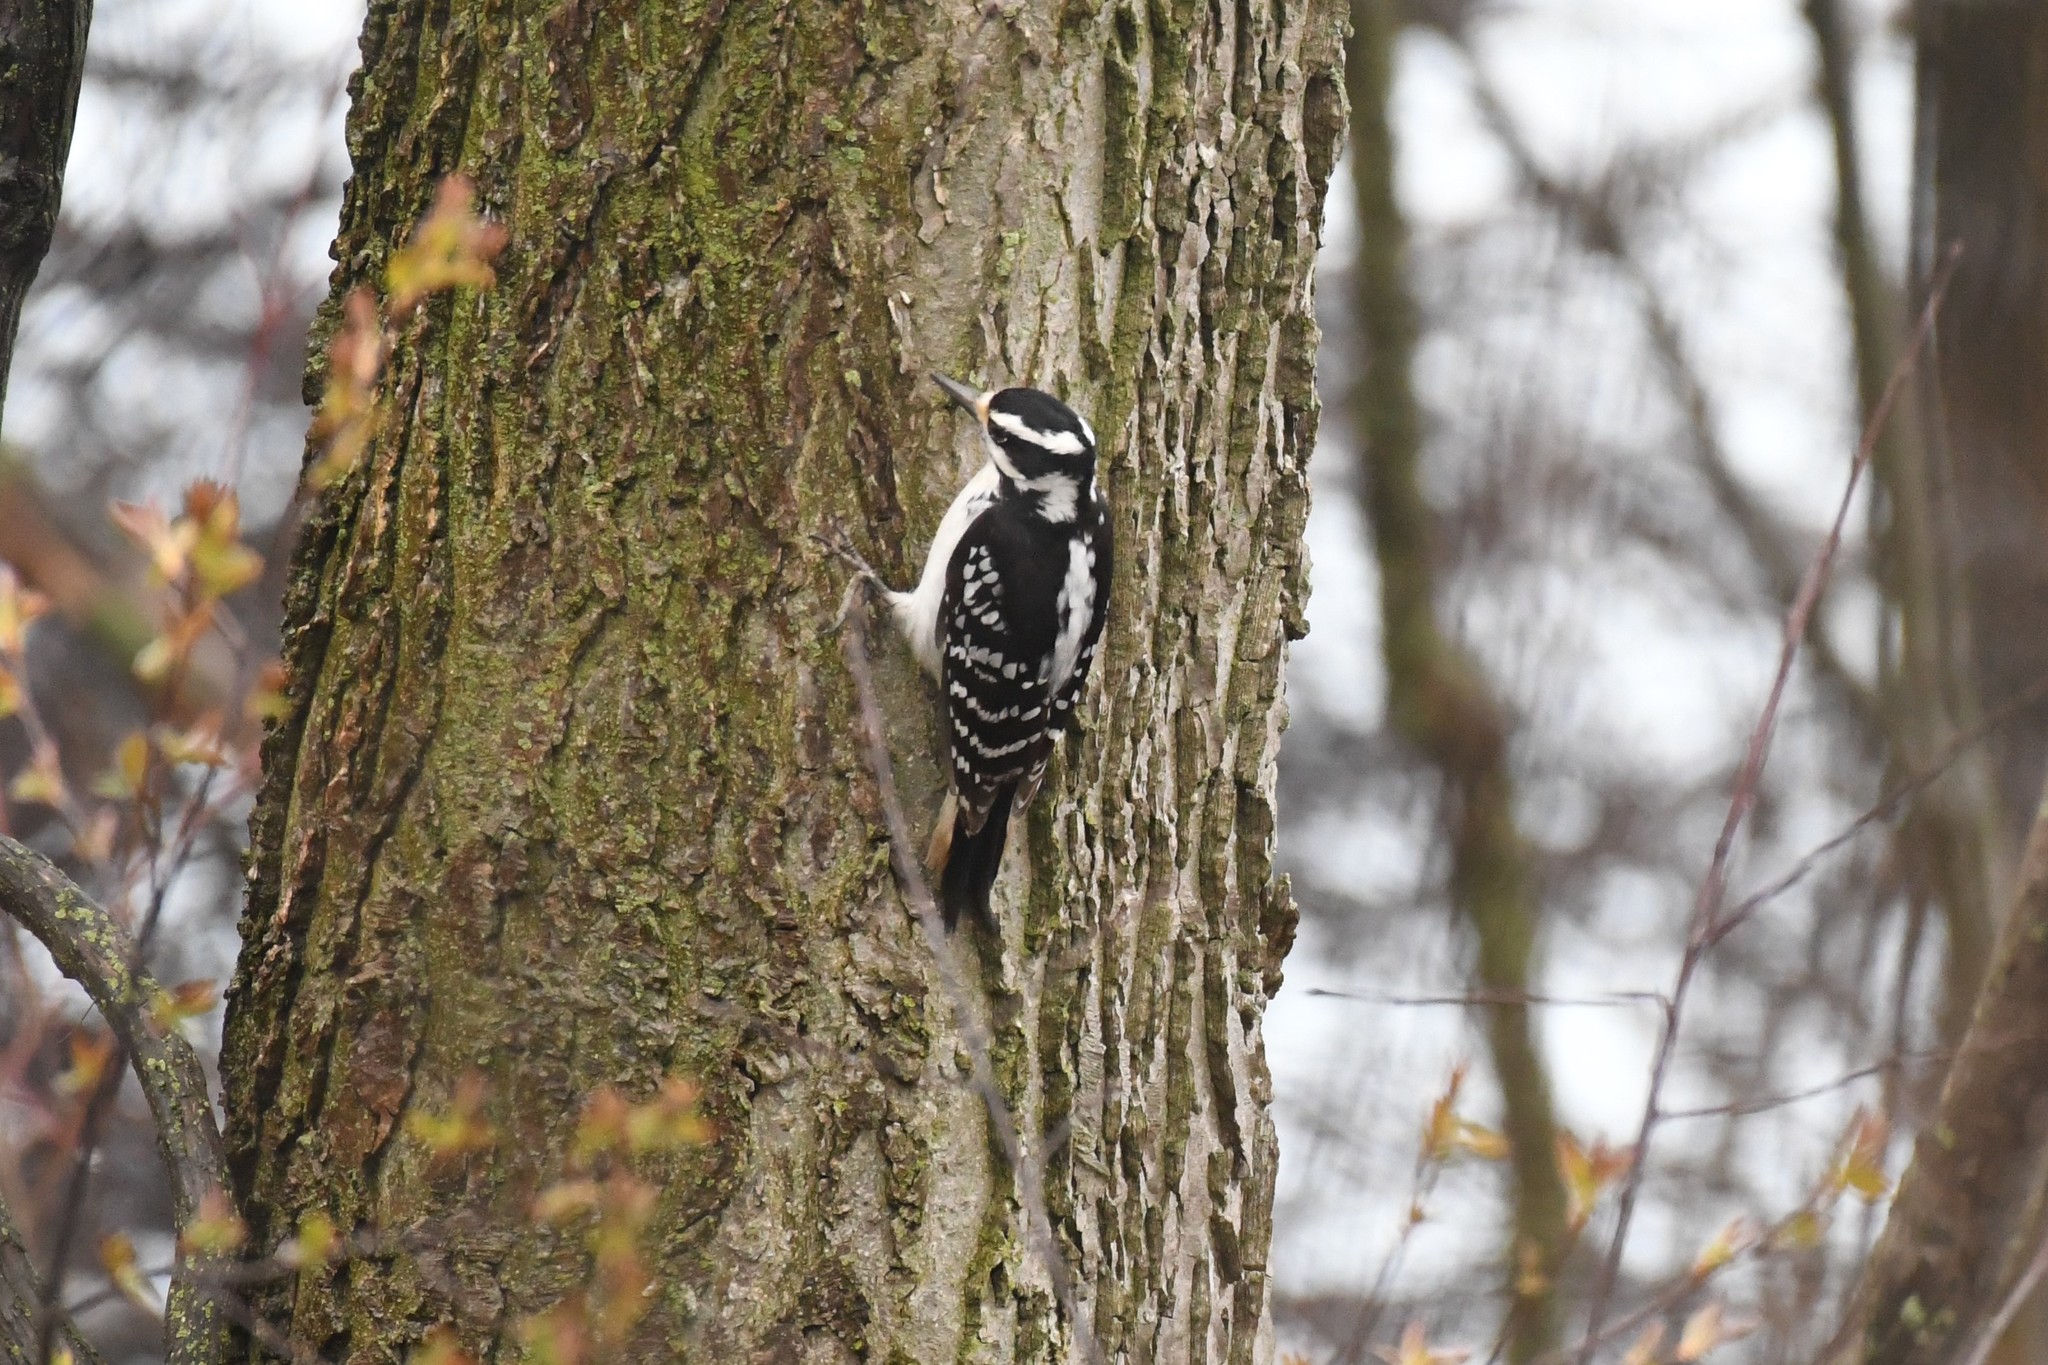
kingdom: Animalia
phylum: Chordata
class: Aves
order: Piciformes
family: Picidae
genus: Leuconotopicus
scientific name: Leuconotopicus villosus
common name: Hairy woodpecker
